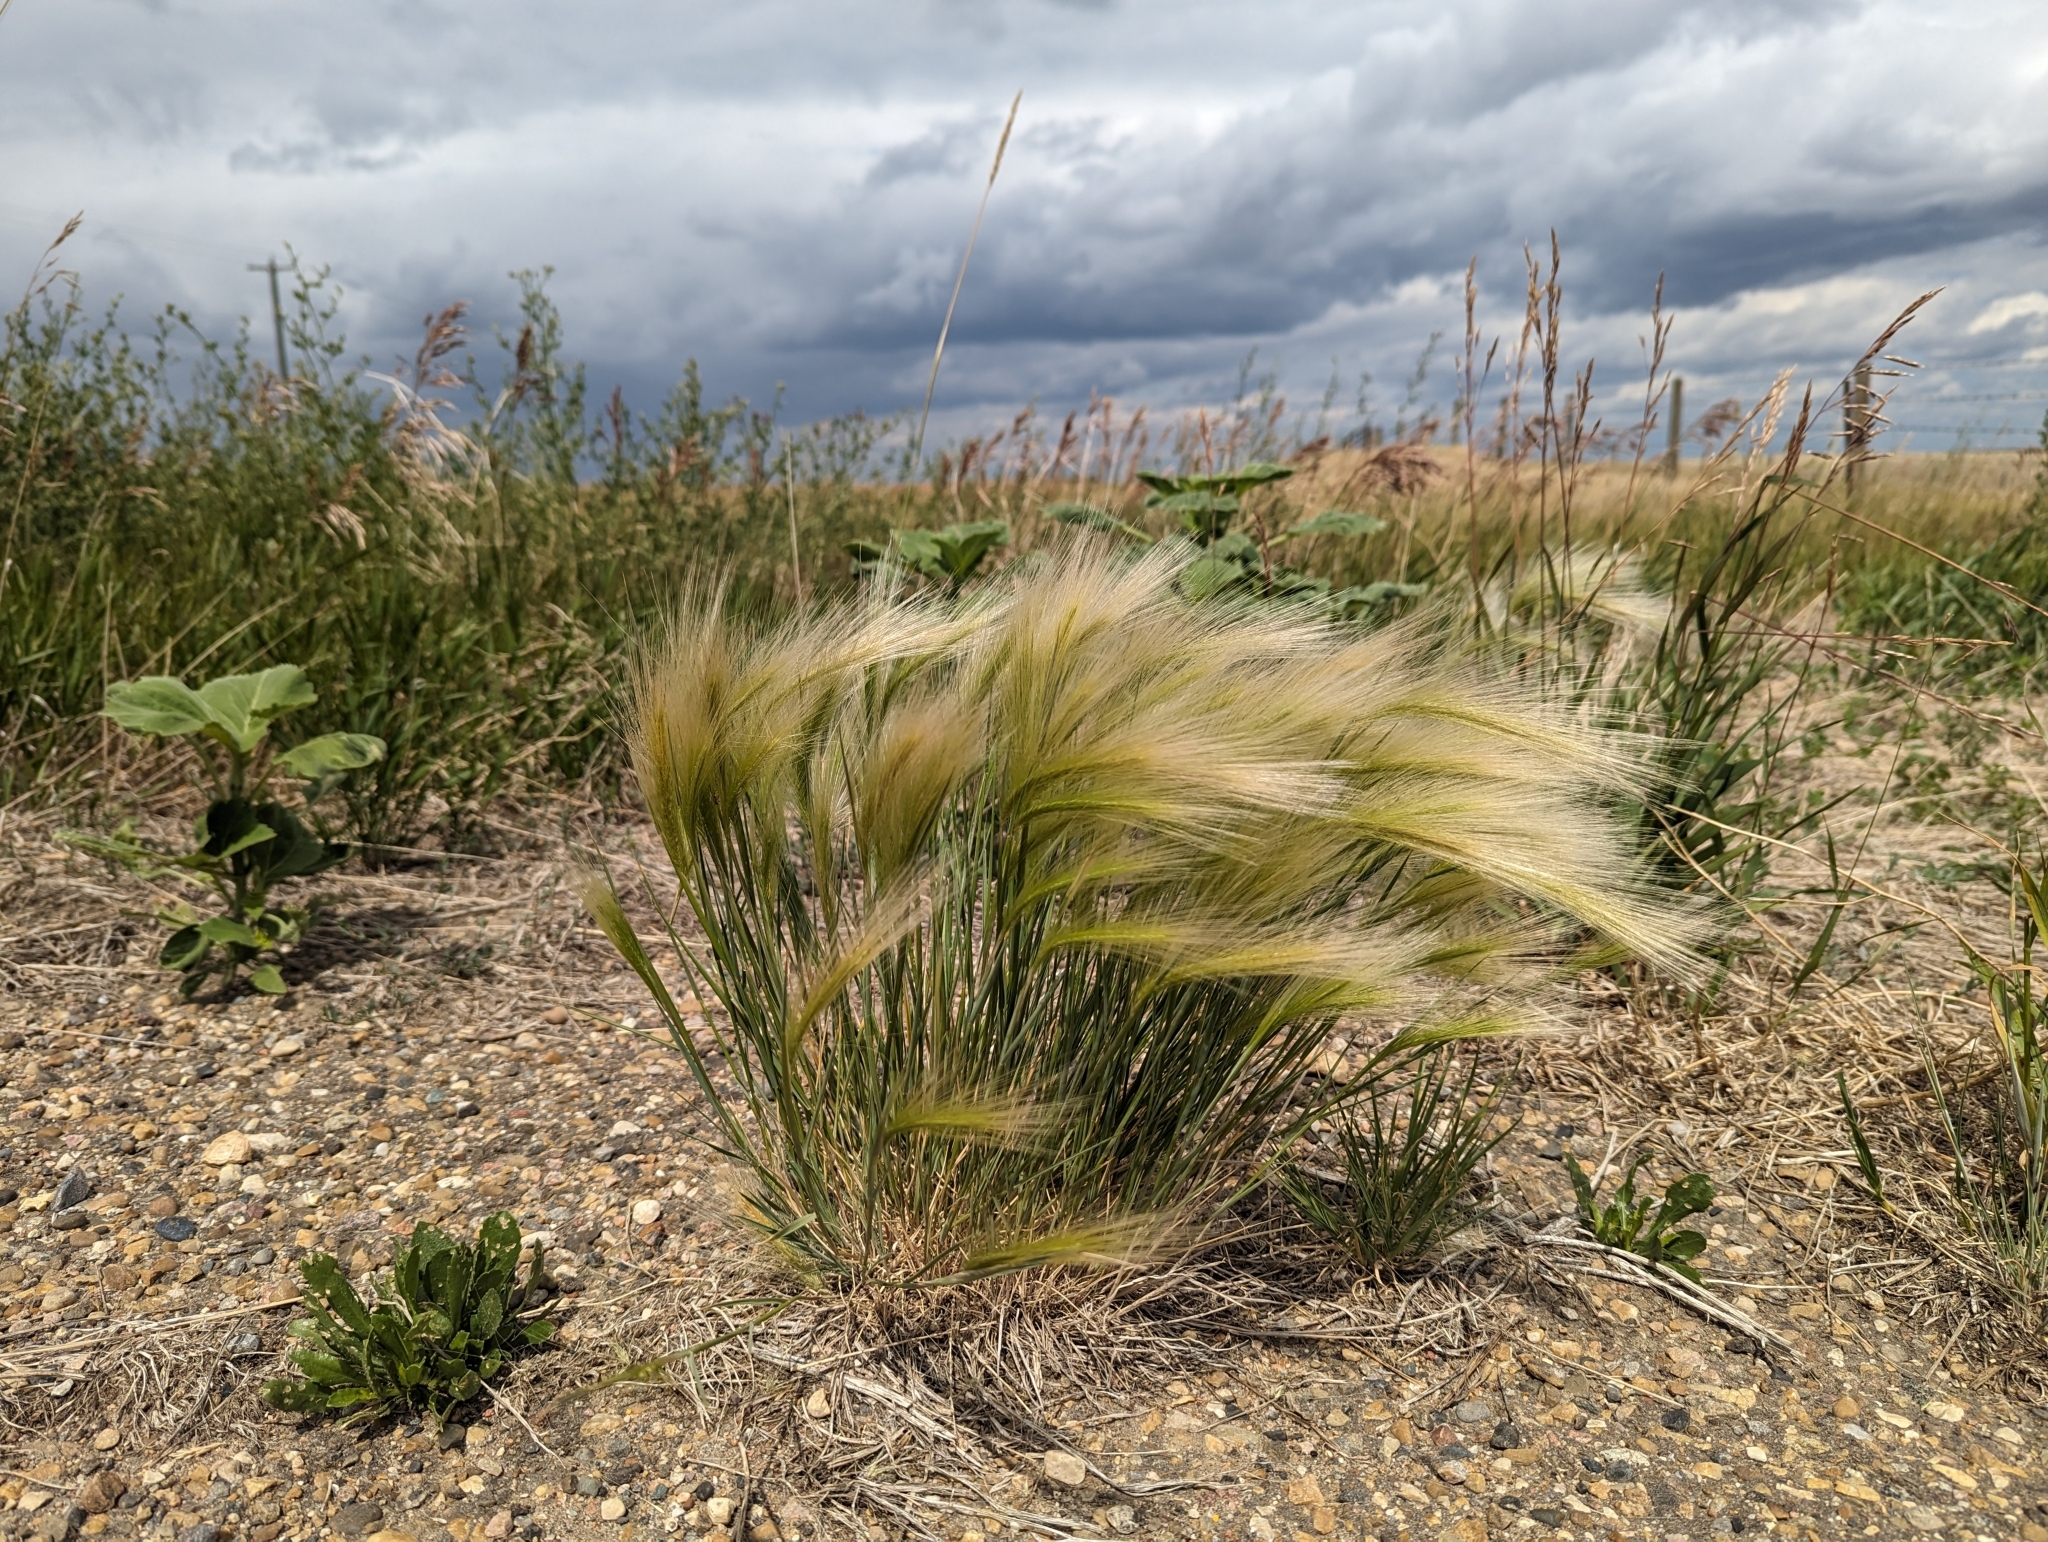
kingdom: Plantae
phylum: Tracheophyta
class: Liliopsida
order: Poales
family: Poaceae
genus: Hordeum
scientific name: Hordeum jubatum
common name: Foxtail barley
